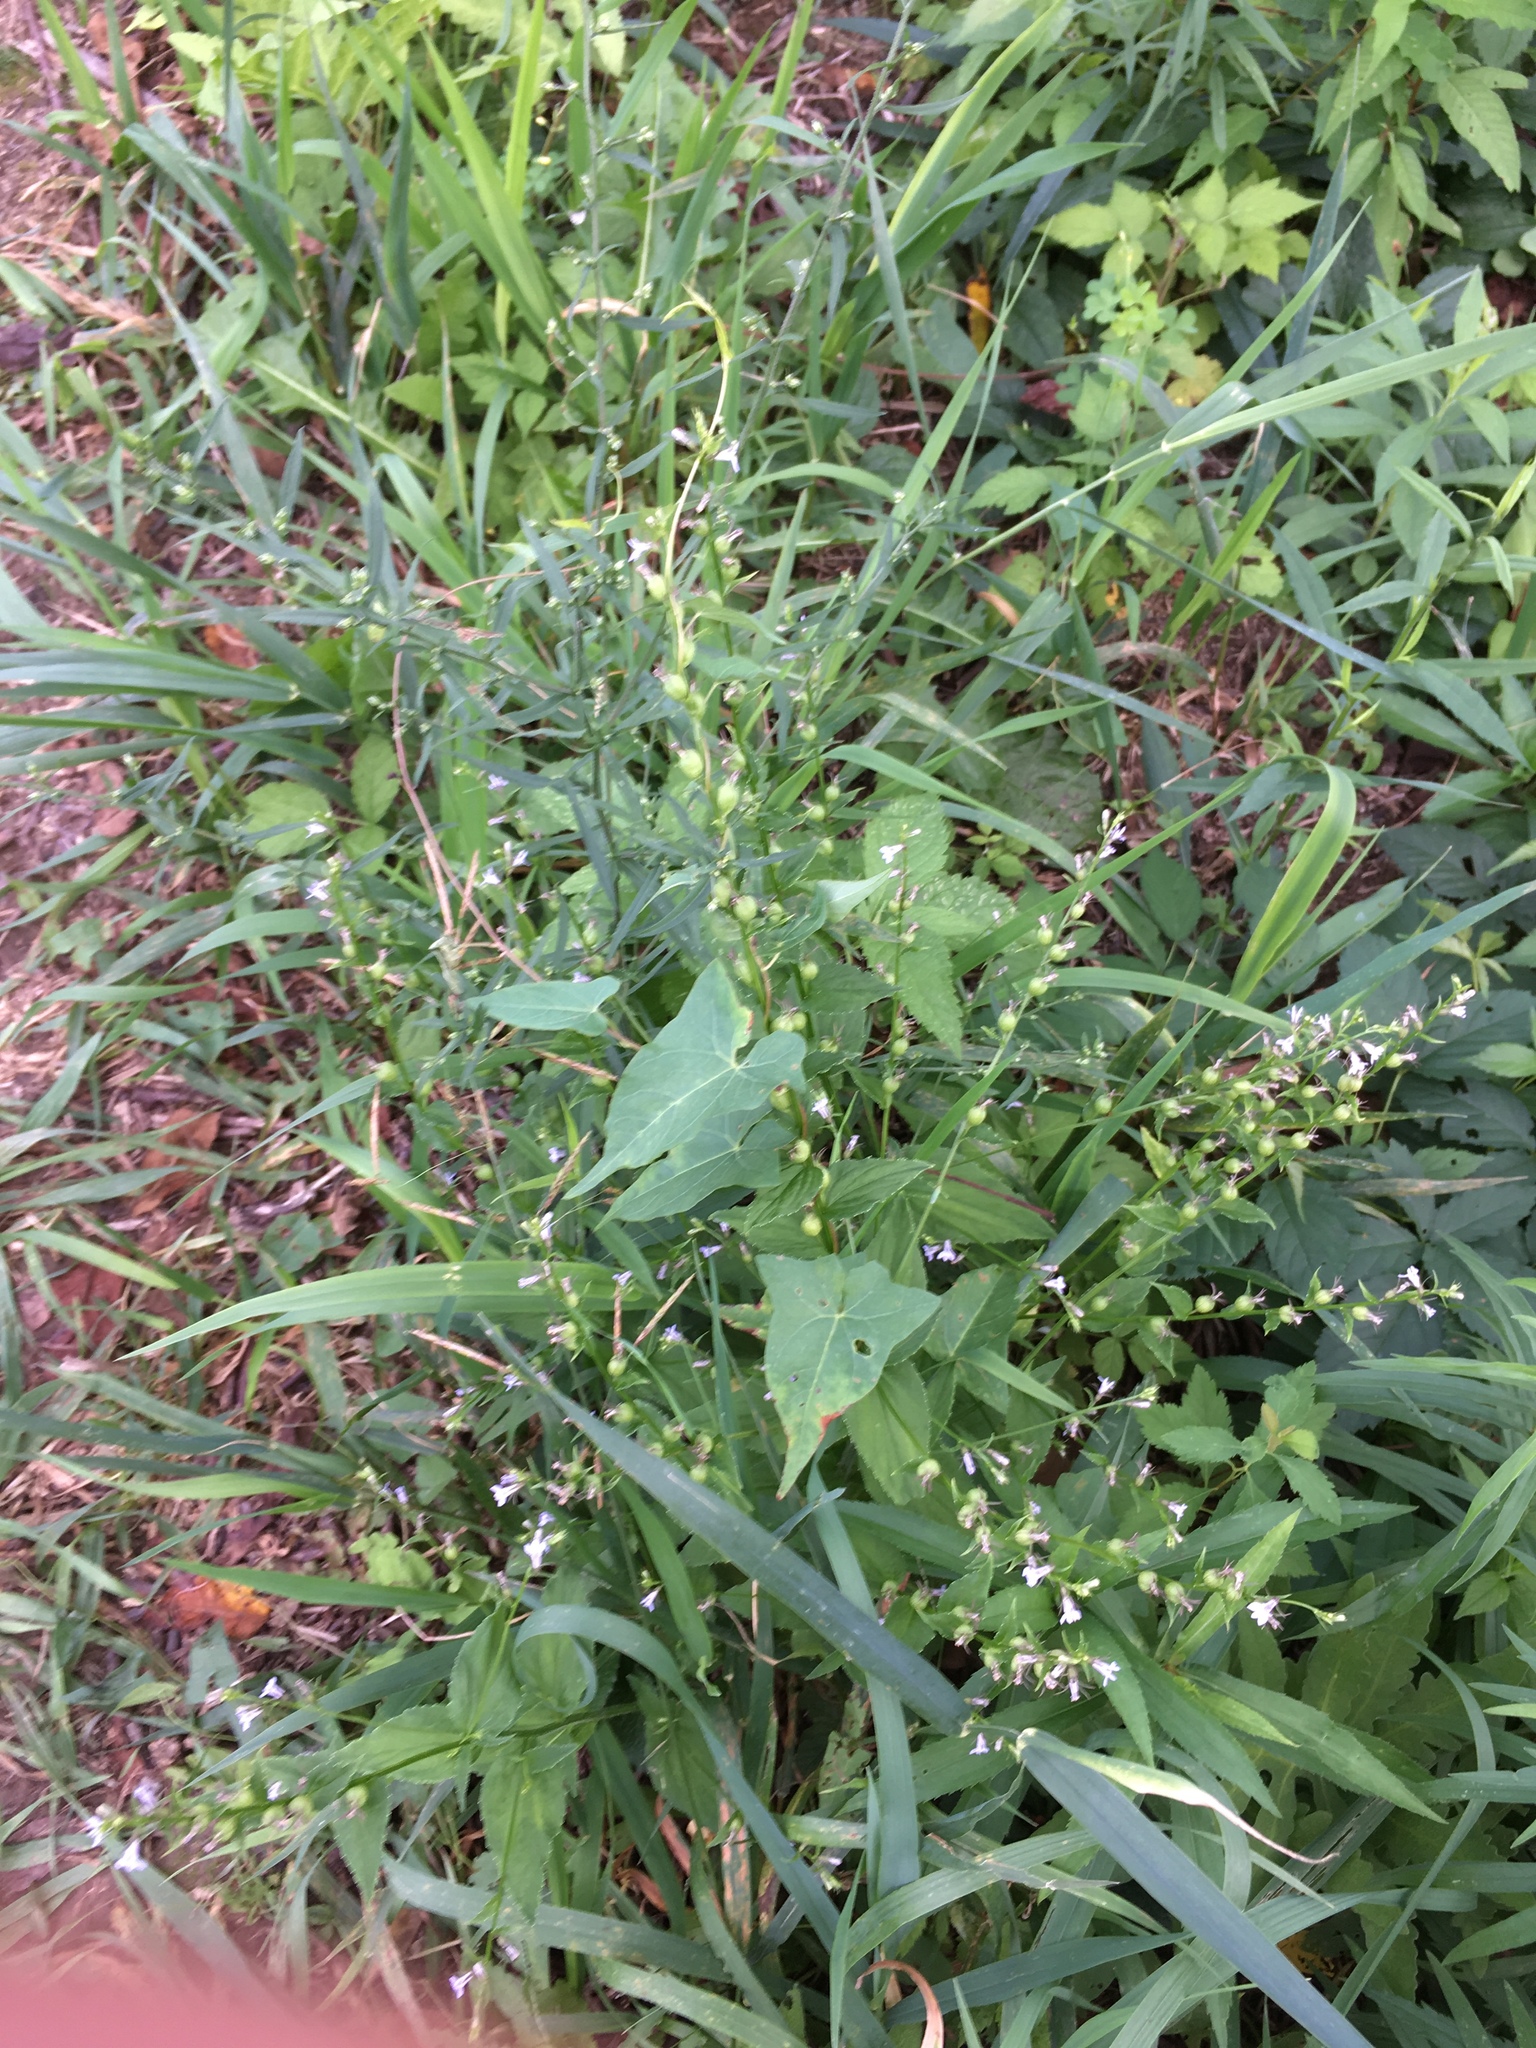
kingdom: Plantae
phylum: Tracheophyta
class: Magnoliopsida
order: Asterales
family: Campanulaceae
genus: Lobelia
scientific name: Lobelia inflata
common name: Indian tobacco
